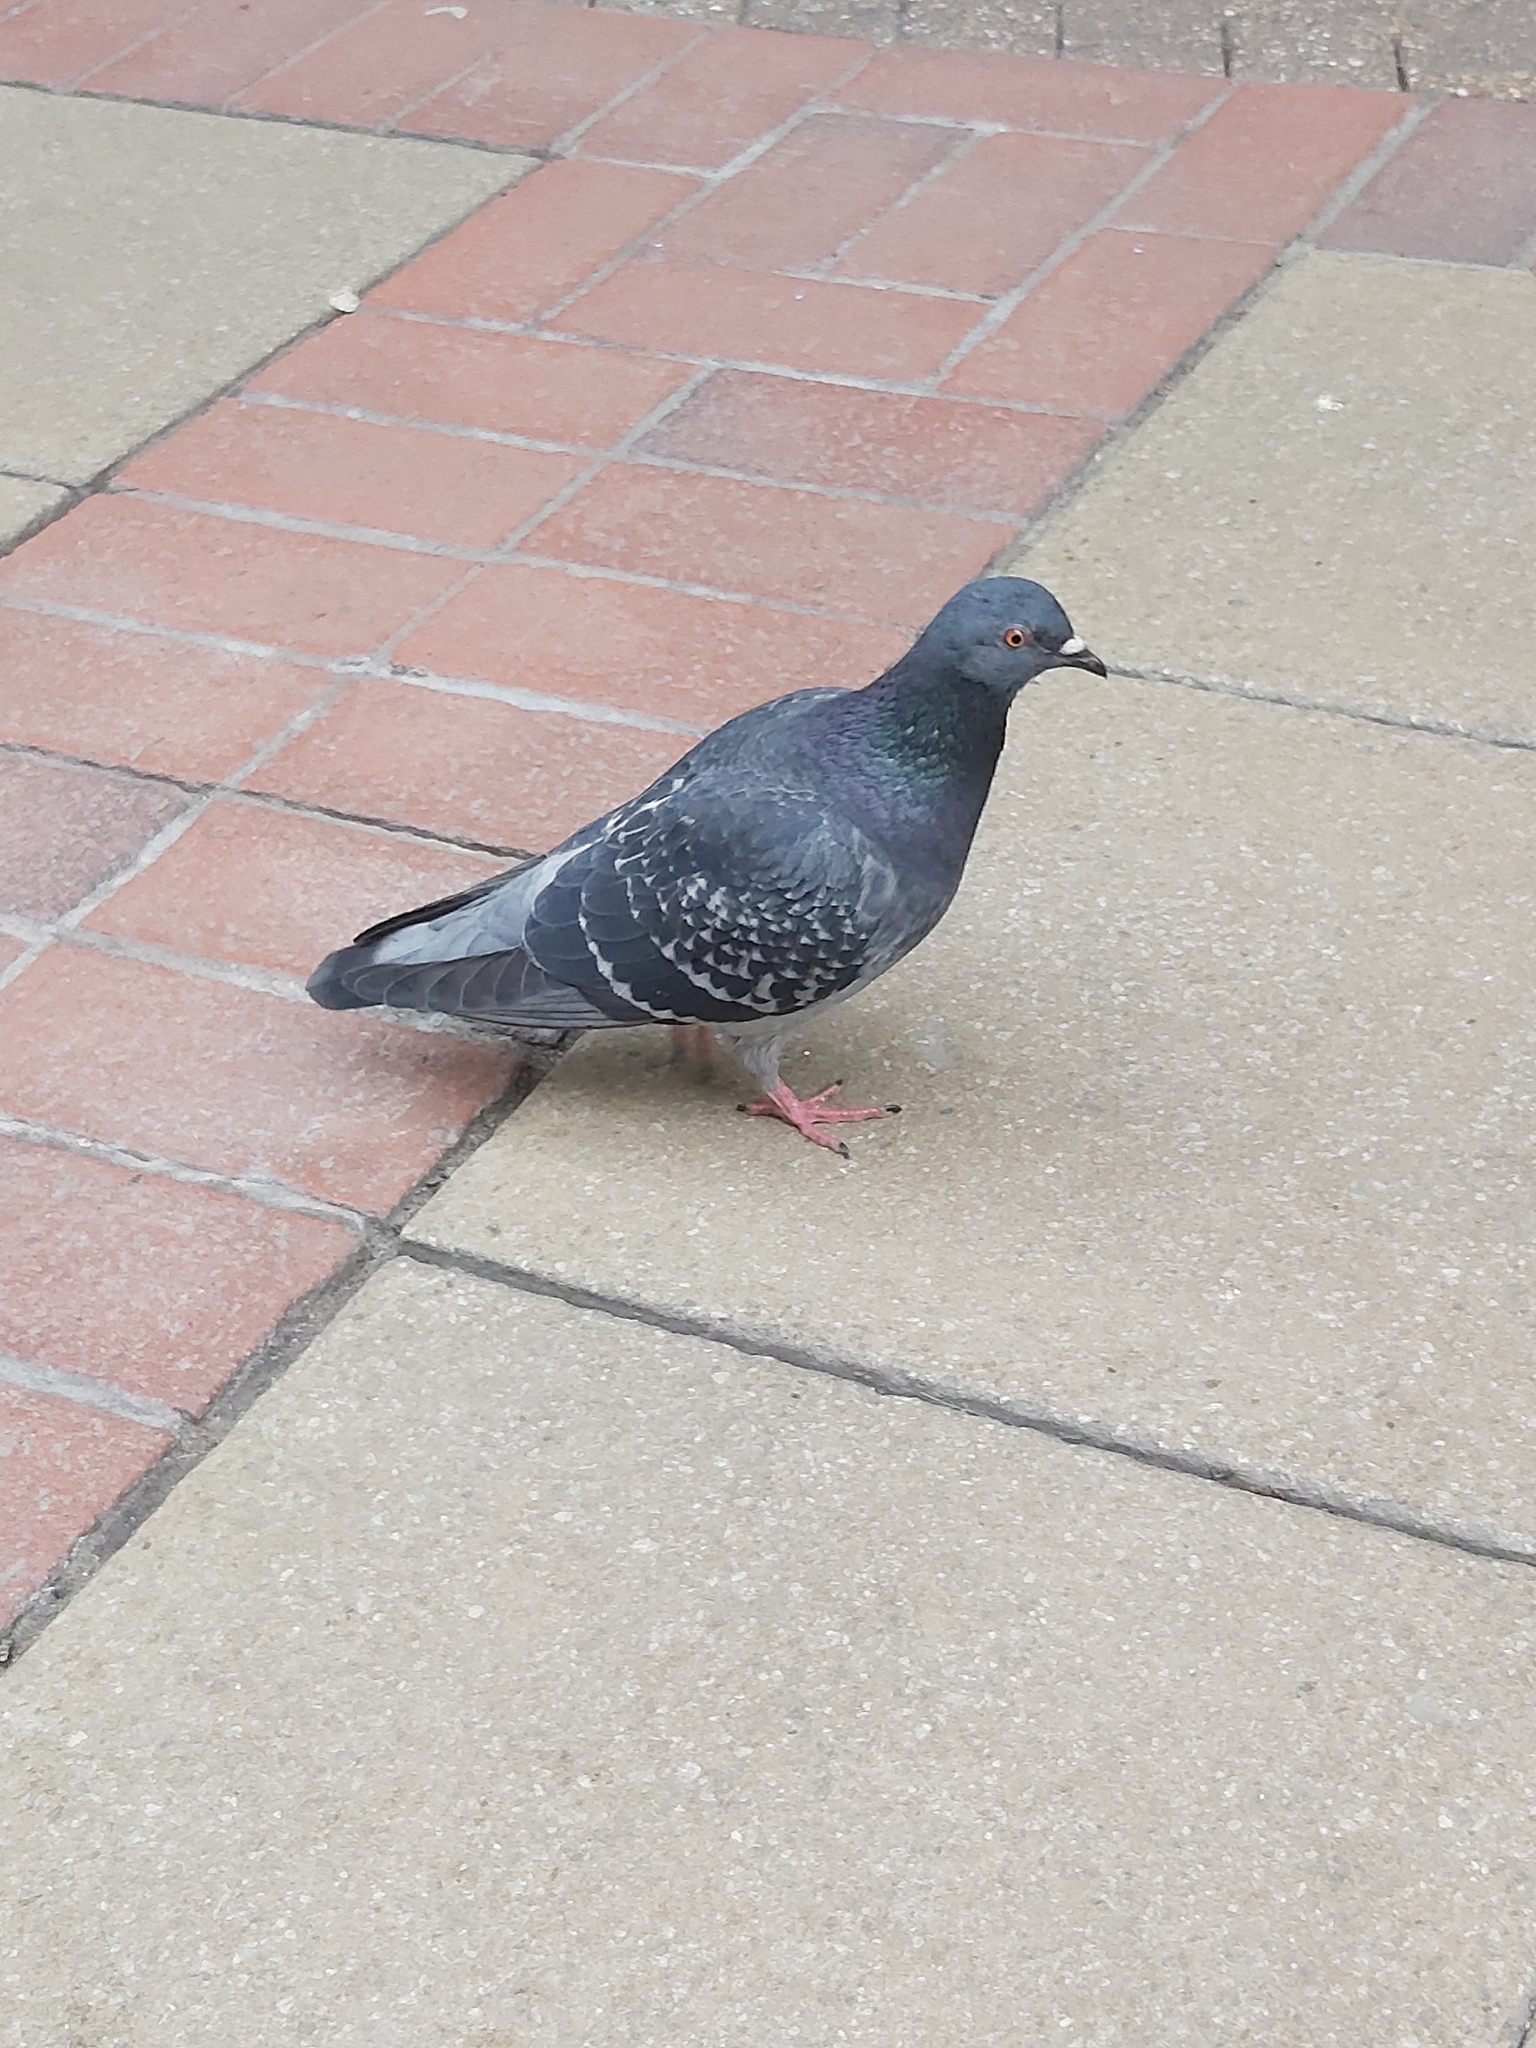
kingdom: Animalia
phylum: Chordata
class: Aves
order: Columbiformes
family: Columbidae
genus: Columba
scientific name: Columba livia
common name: Rock pigeon
